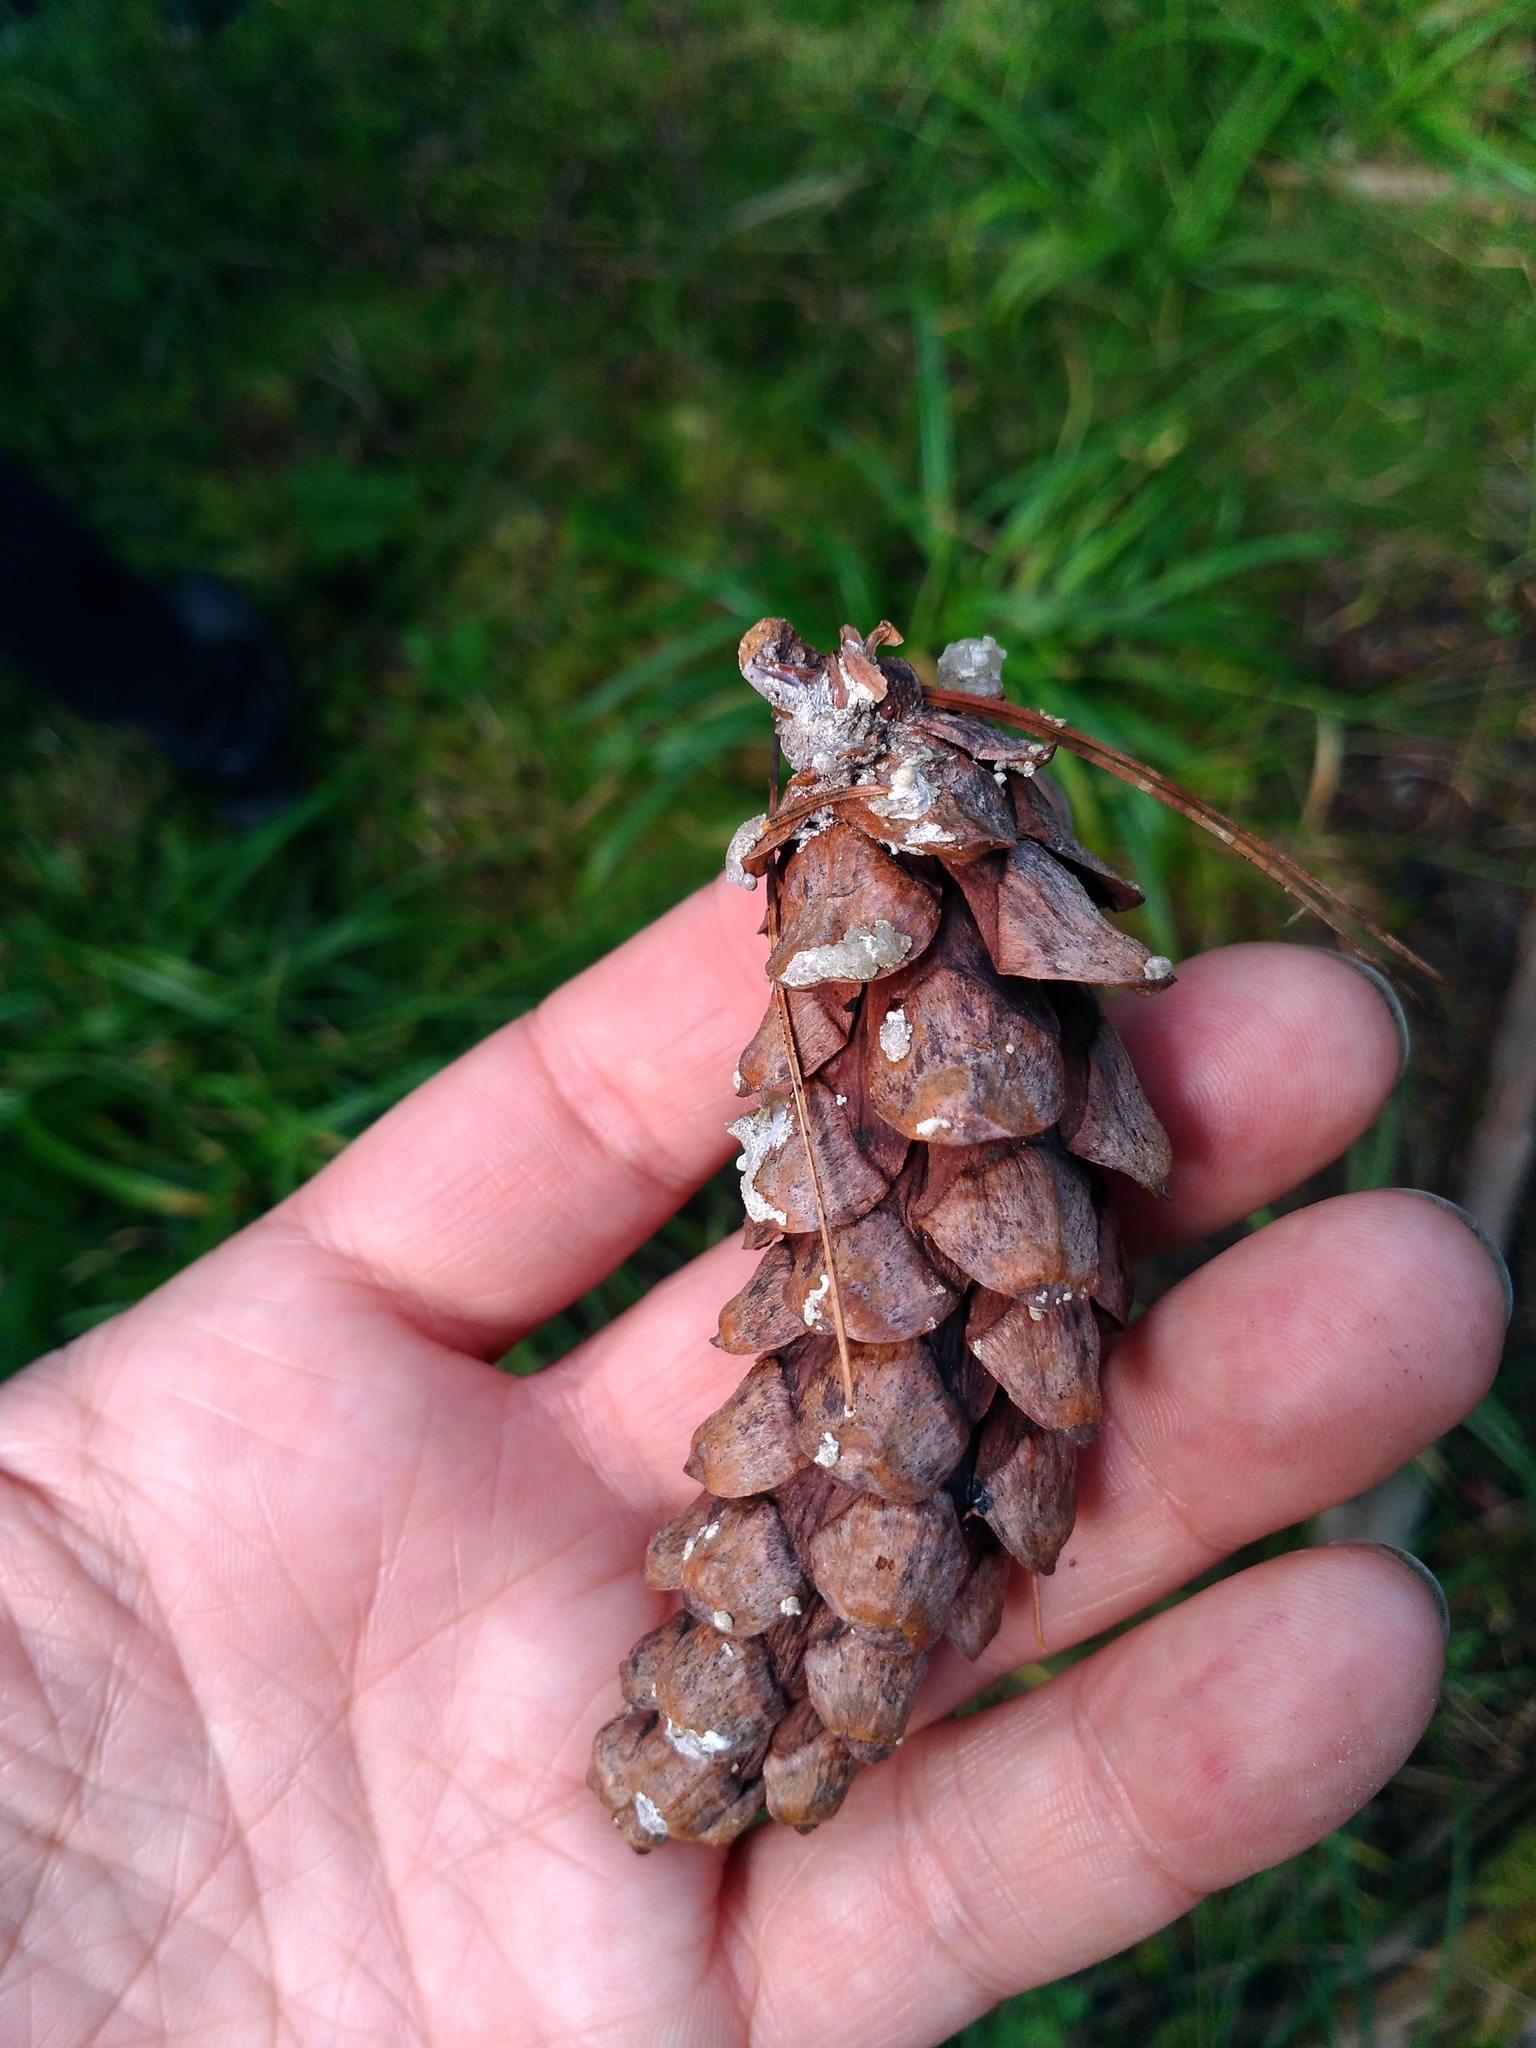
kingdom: Plantae
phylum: Tracheophyta
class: Pinopsida
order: Pinales
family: Pinaceae
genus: Pinus
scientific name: Pinus strobus
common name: Weymouth pine
